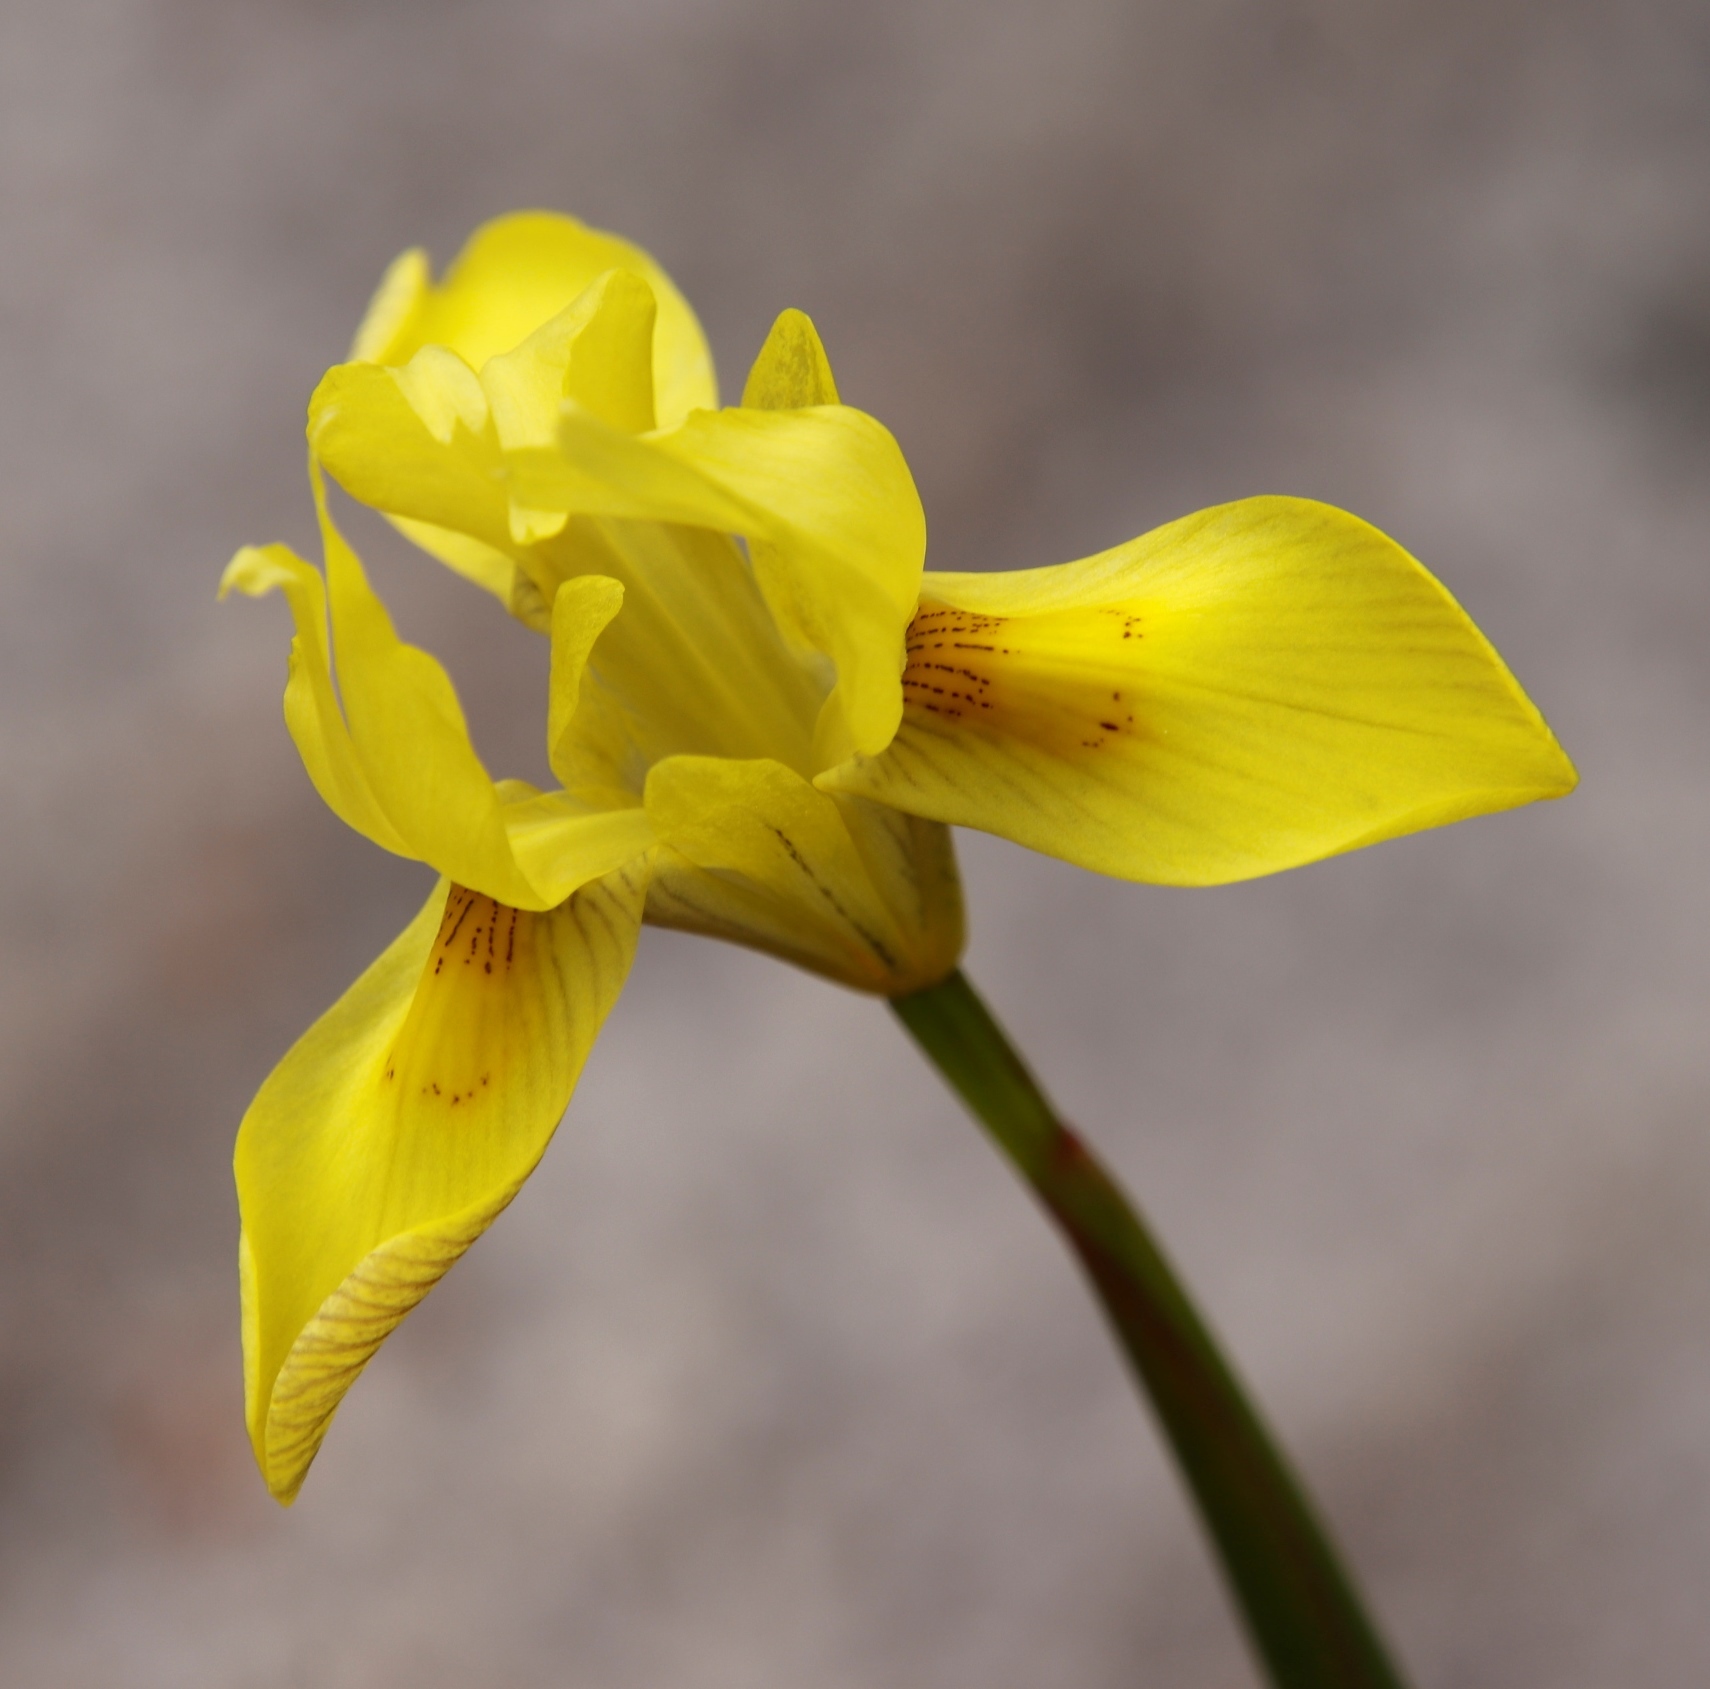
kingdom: Plantae
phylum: Tracheophyta
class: Liliopsida
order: Asparagales
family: Iridaceae
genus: Moraea
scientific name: Moraea anomala
